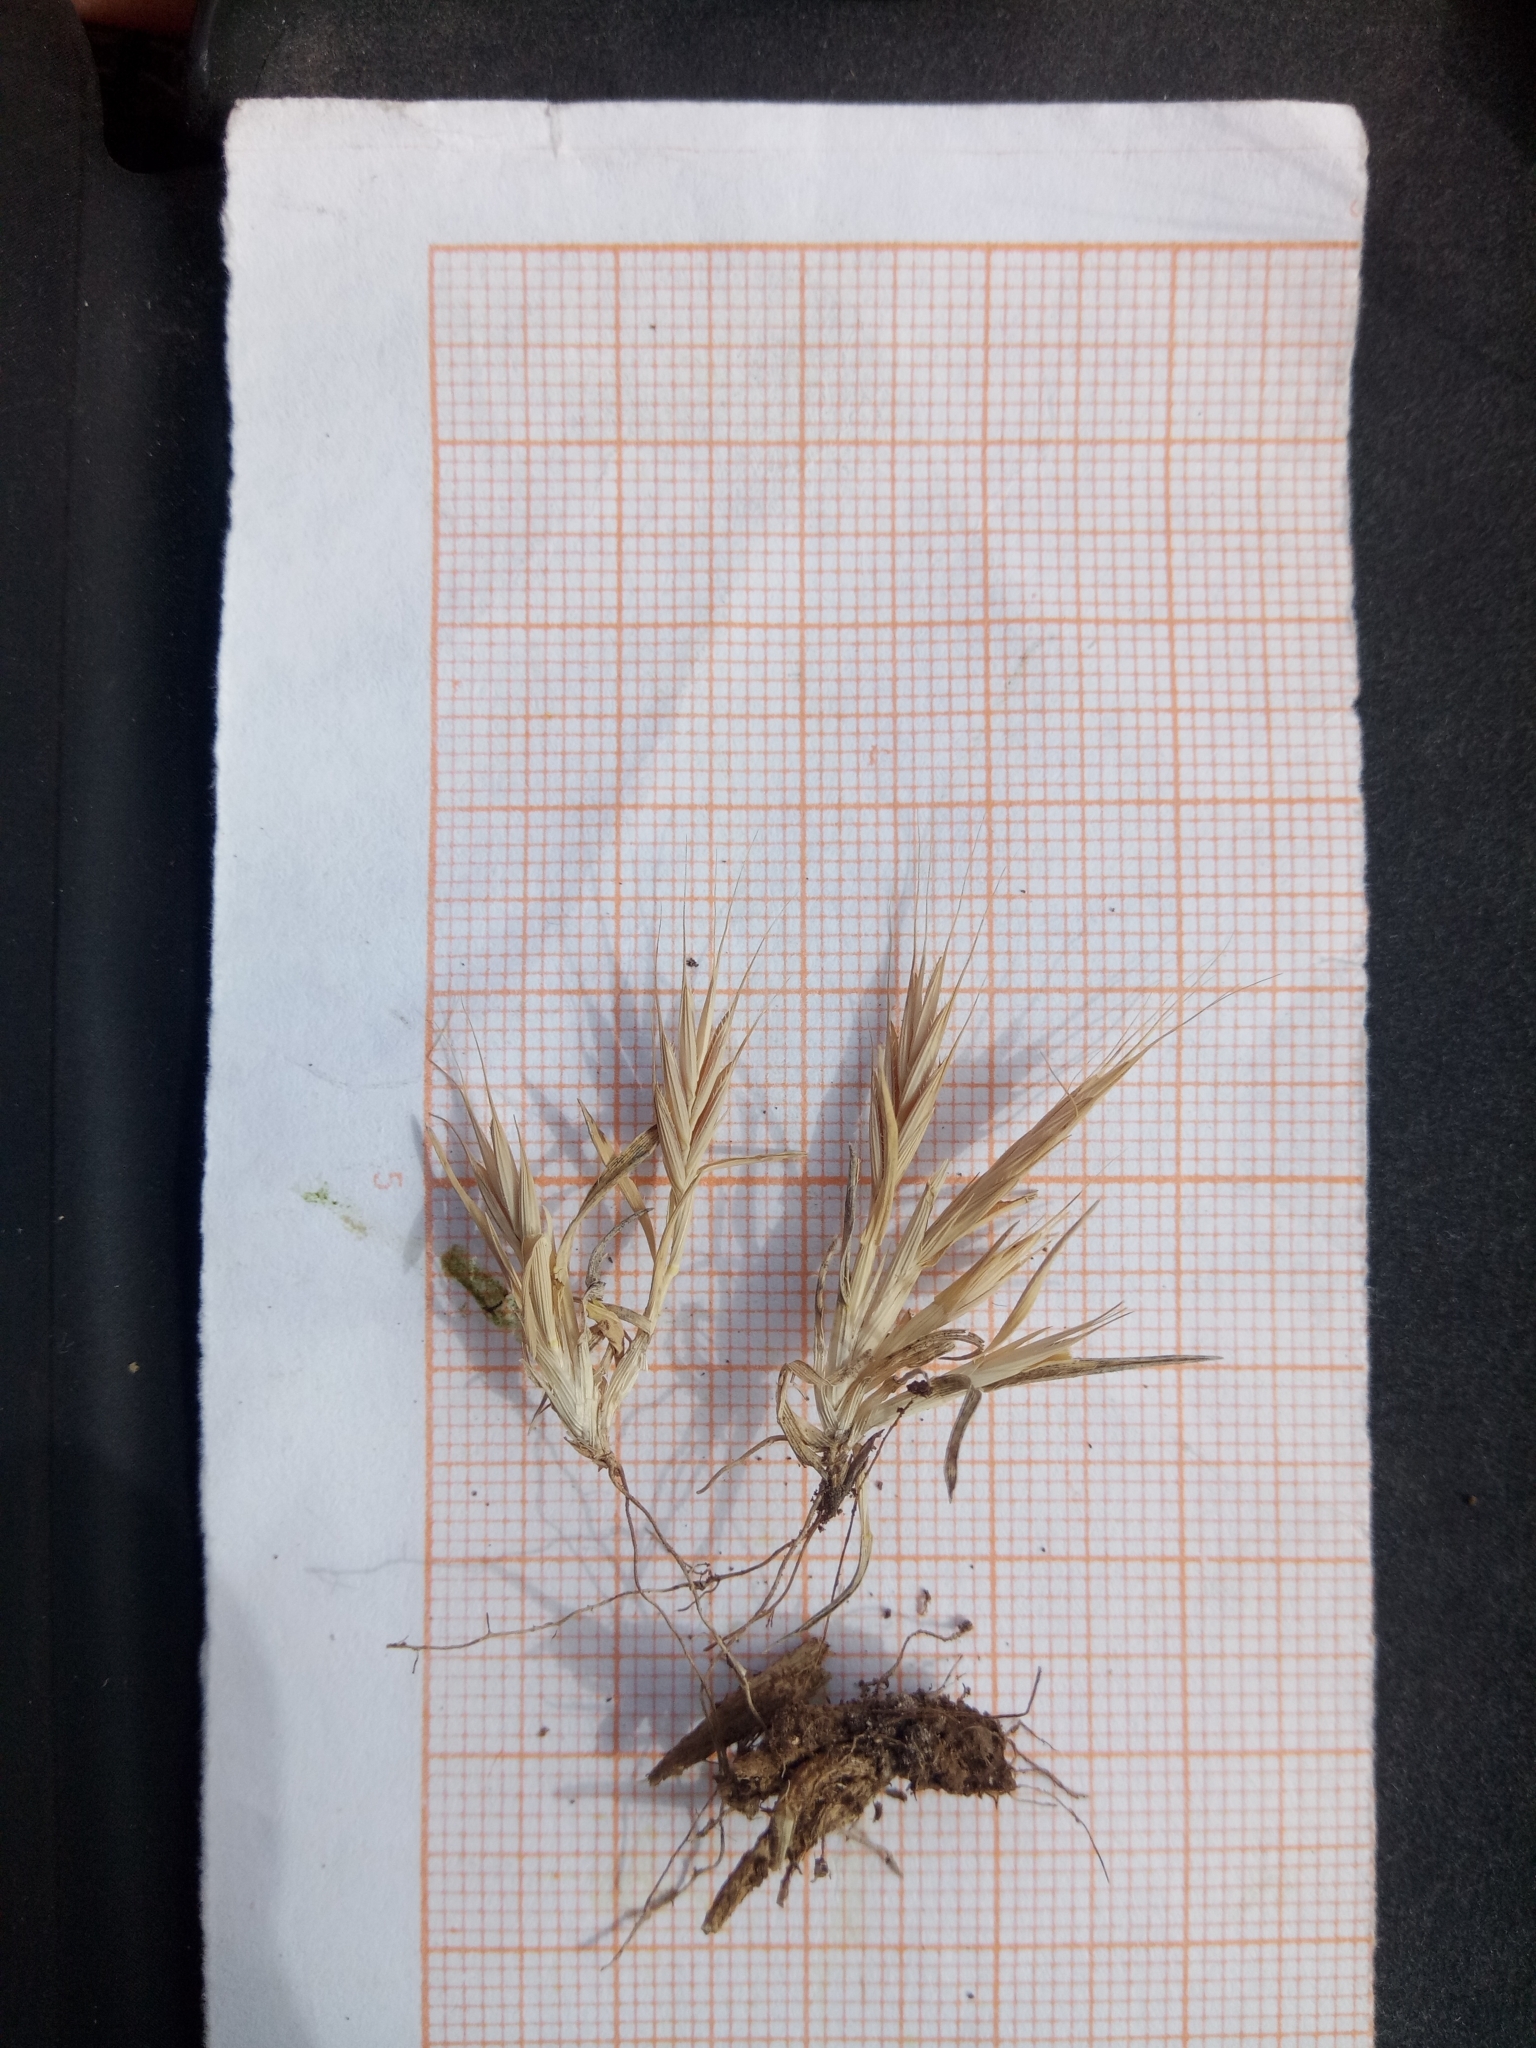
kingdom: Plantae
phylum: Tracheophyta
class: Liliopsida
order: Poales
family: Poaceae
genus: Brachypodium
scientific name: Brachypodium distachyon
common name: Stiff brome
